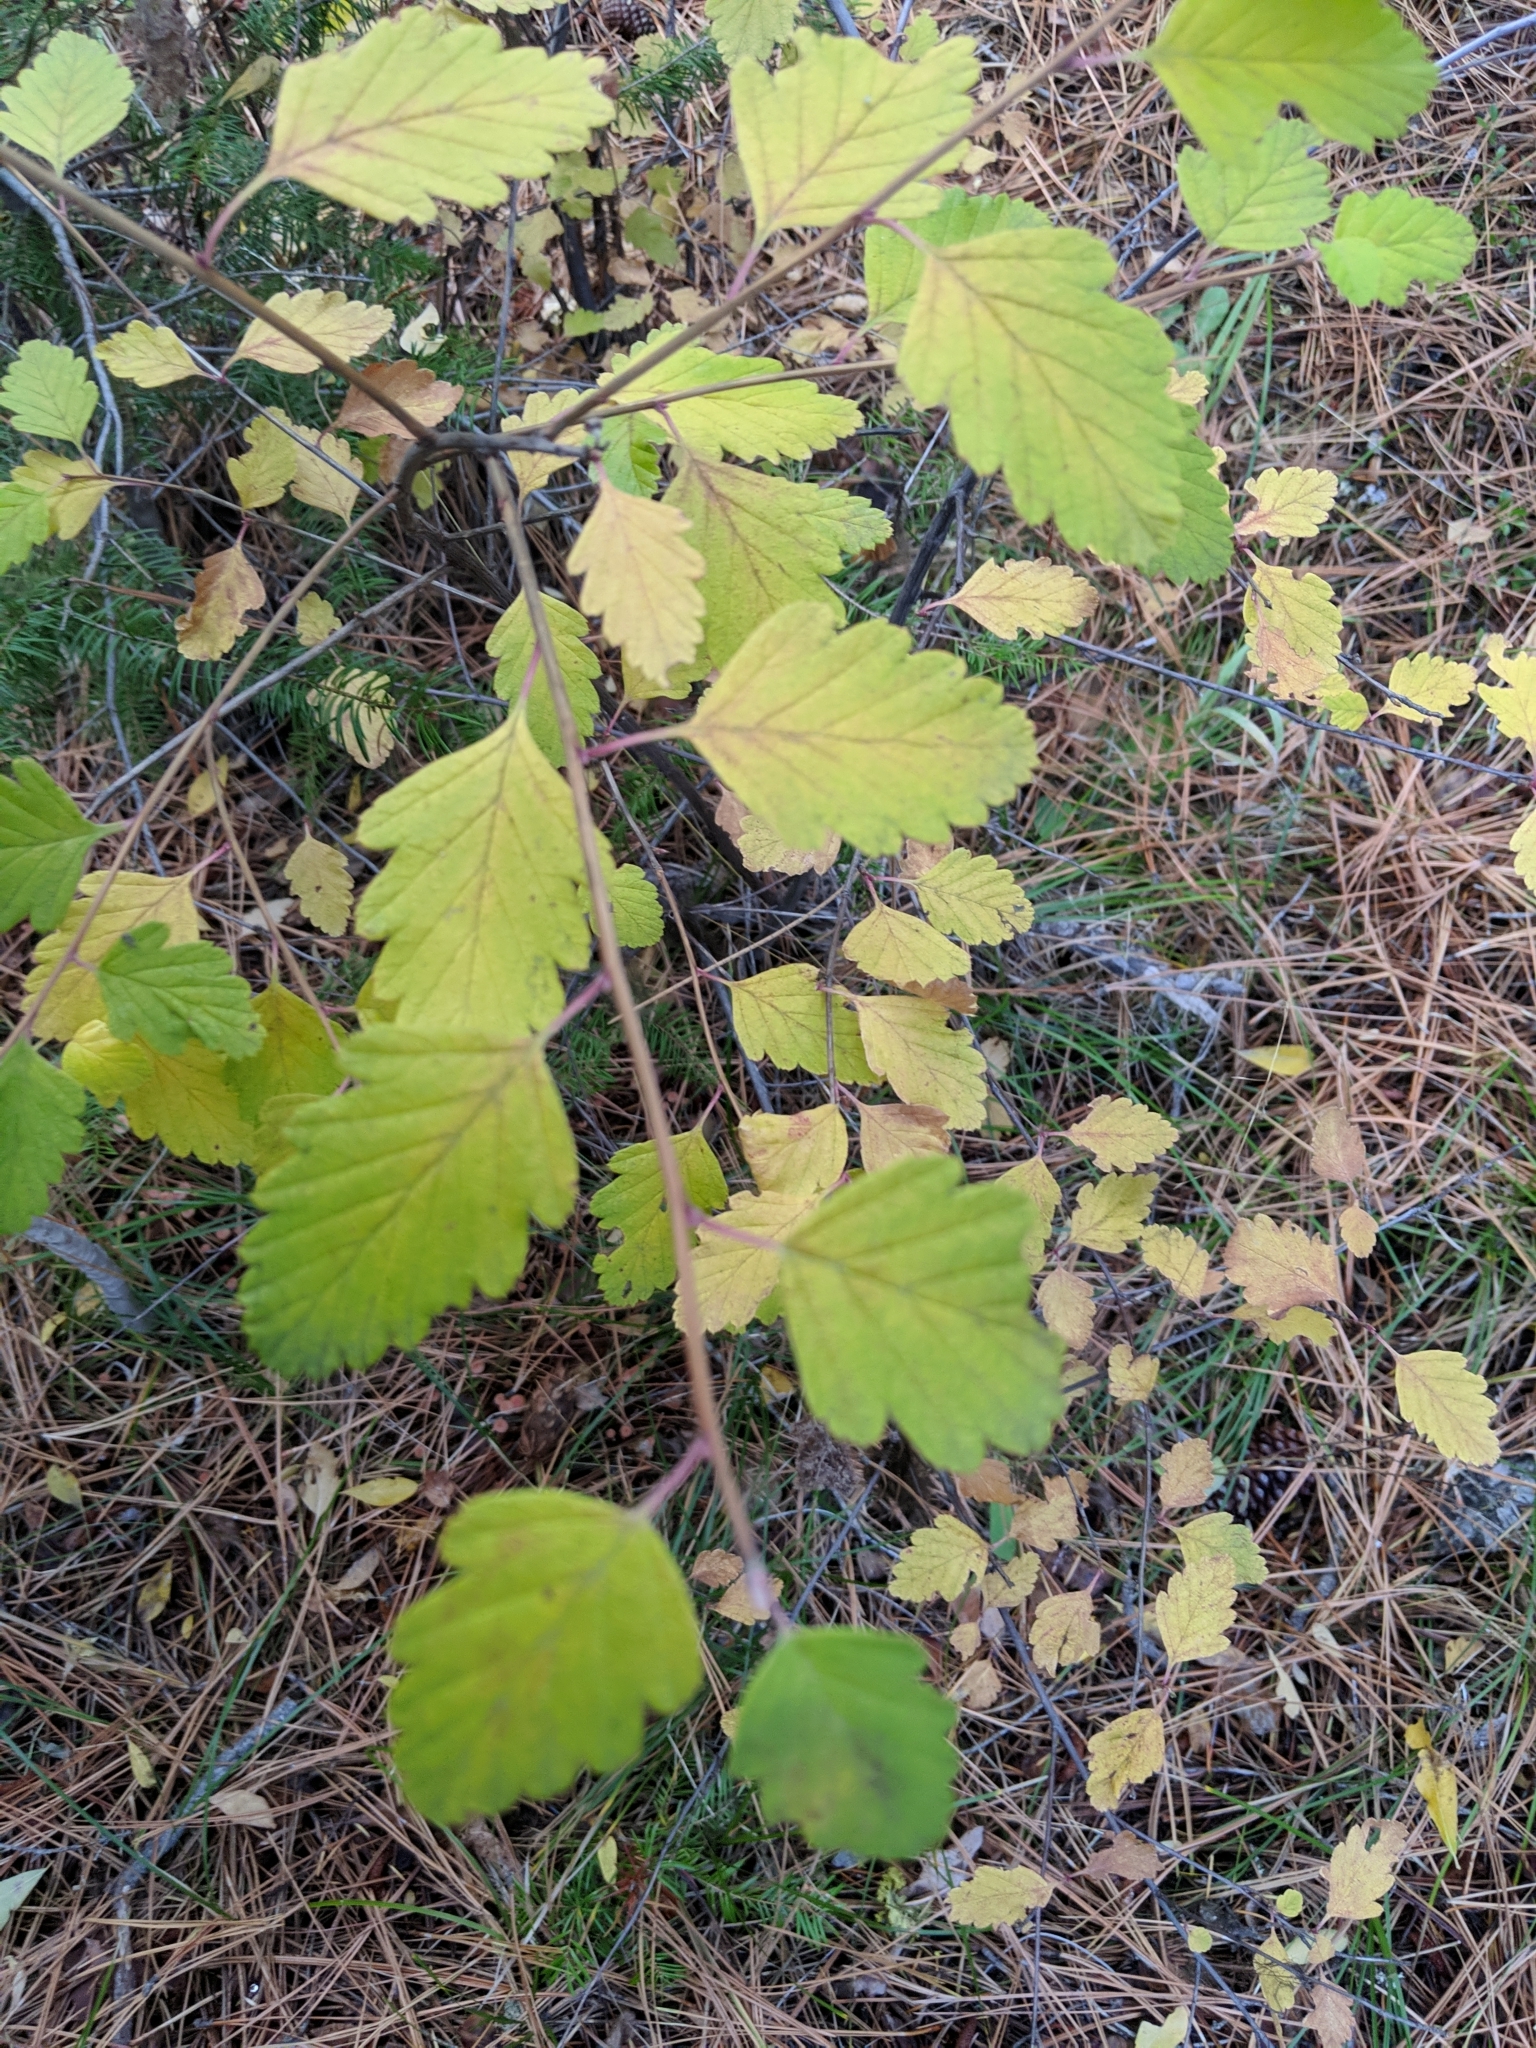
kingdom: Plantae
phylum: Tracheophyta
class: Magnoliopsida
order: Rosales
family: Rosaceae
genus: Holodiscus
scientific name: Holodiscus discolor
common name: Oceanspray
